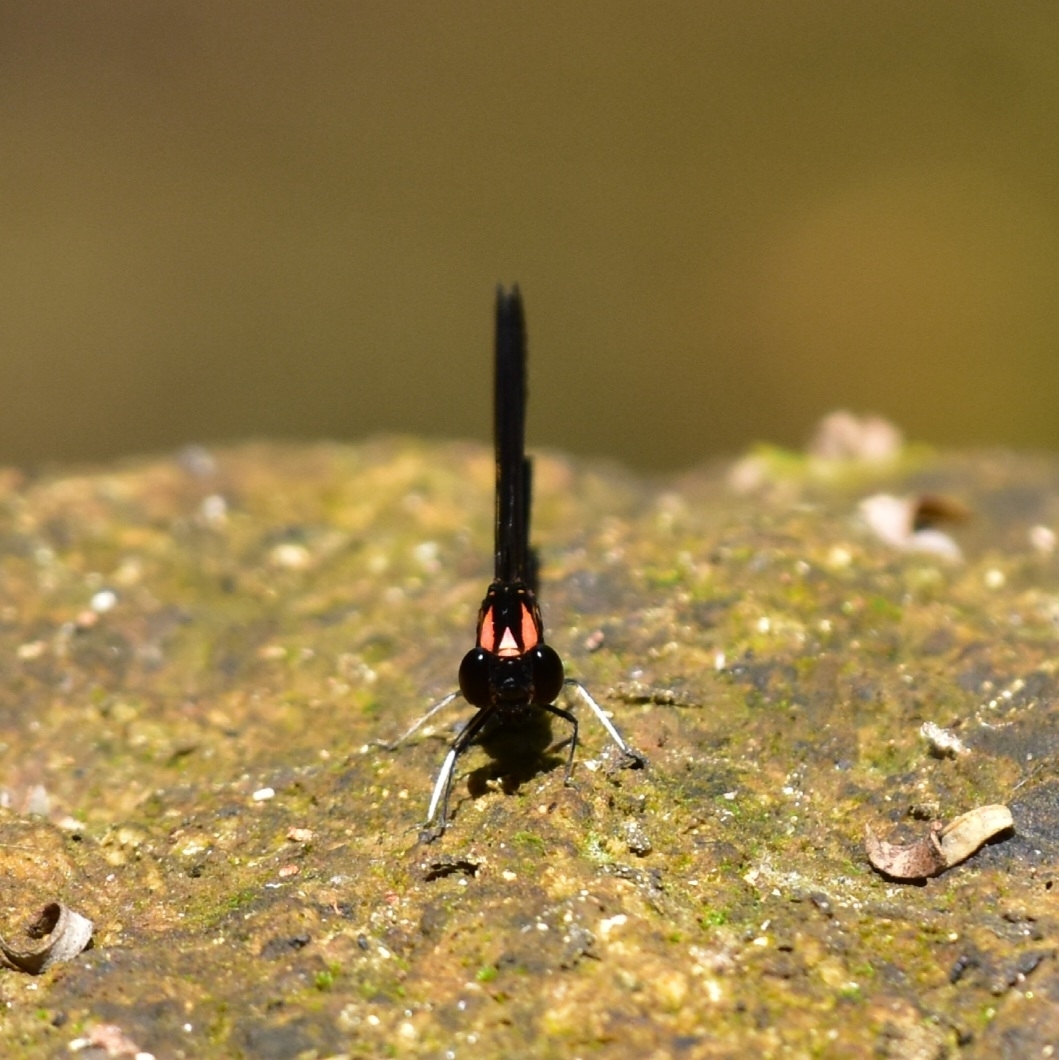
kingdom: Animalia
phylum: Arthropoda
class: Insecta
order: Odonata
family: Chlorocyphidae
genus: Heliocypha
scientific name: Heliocypha bisignata
